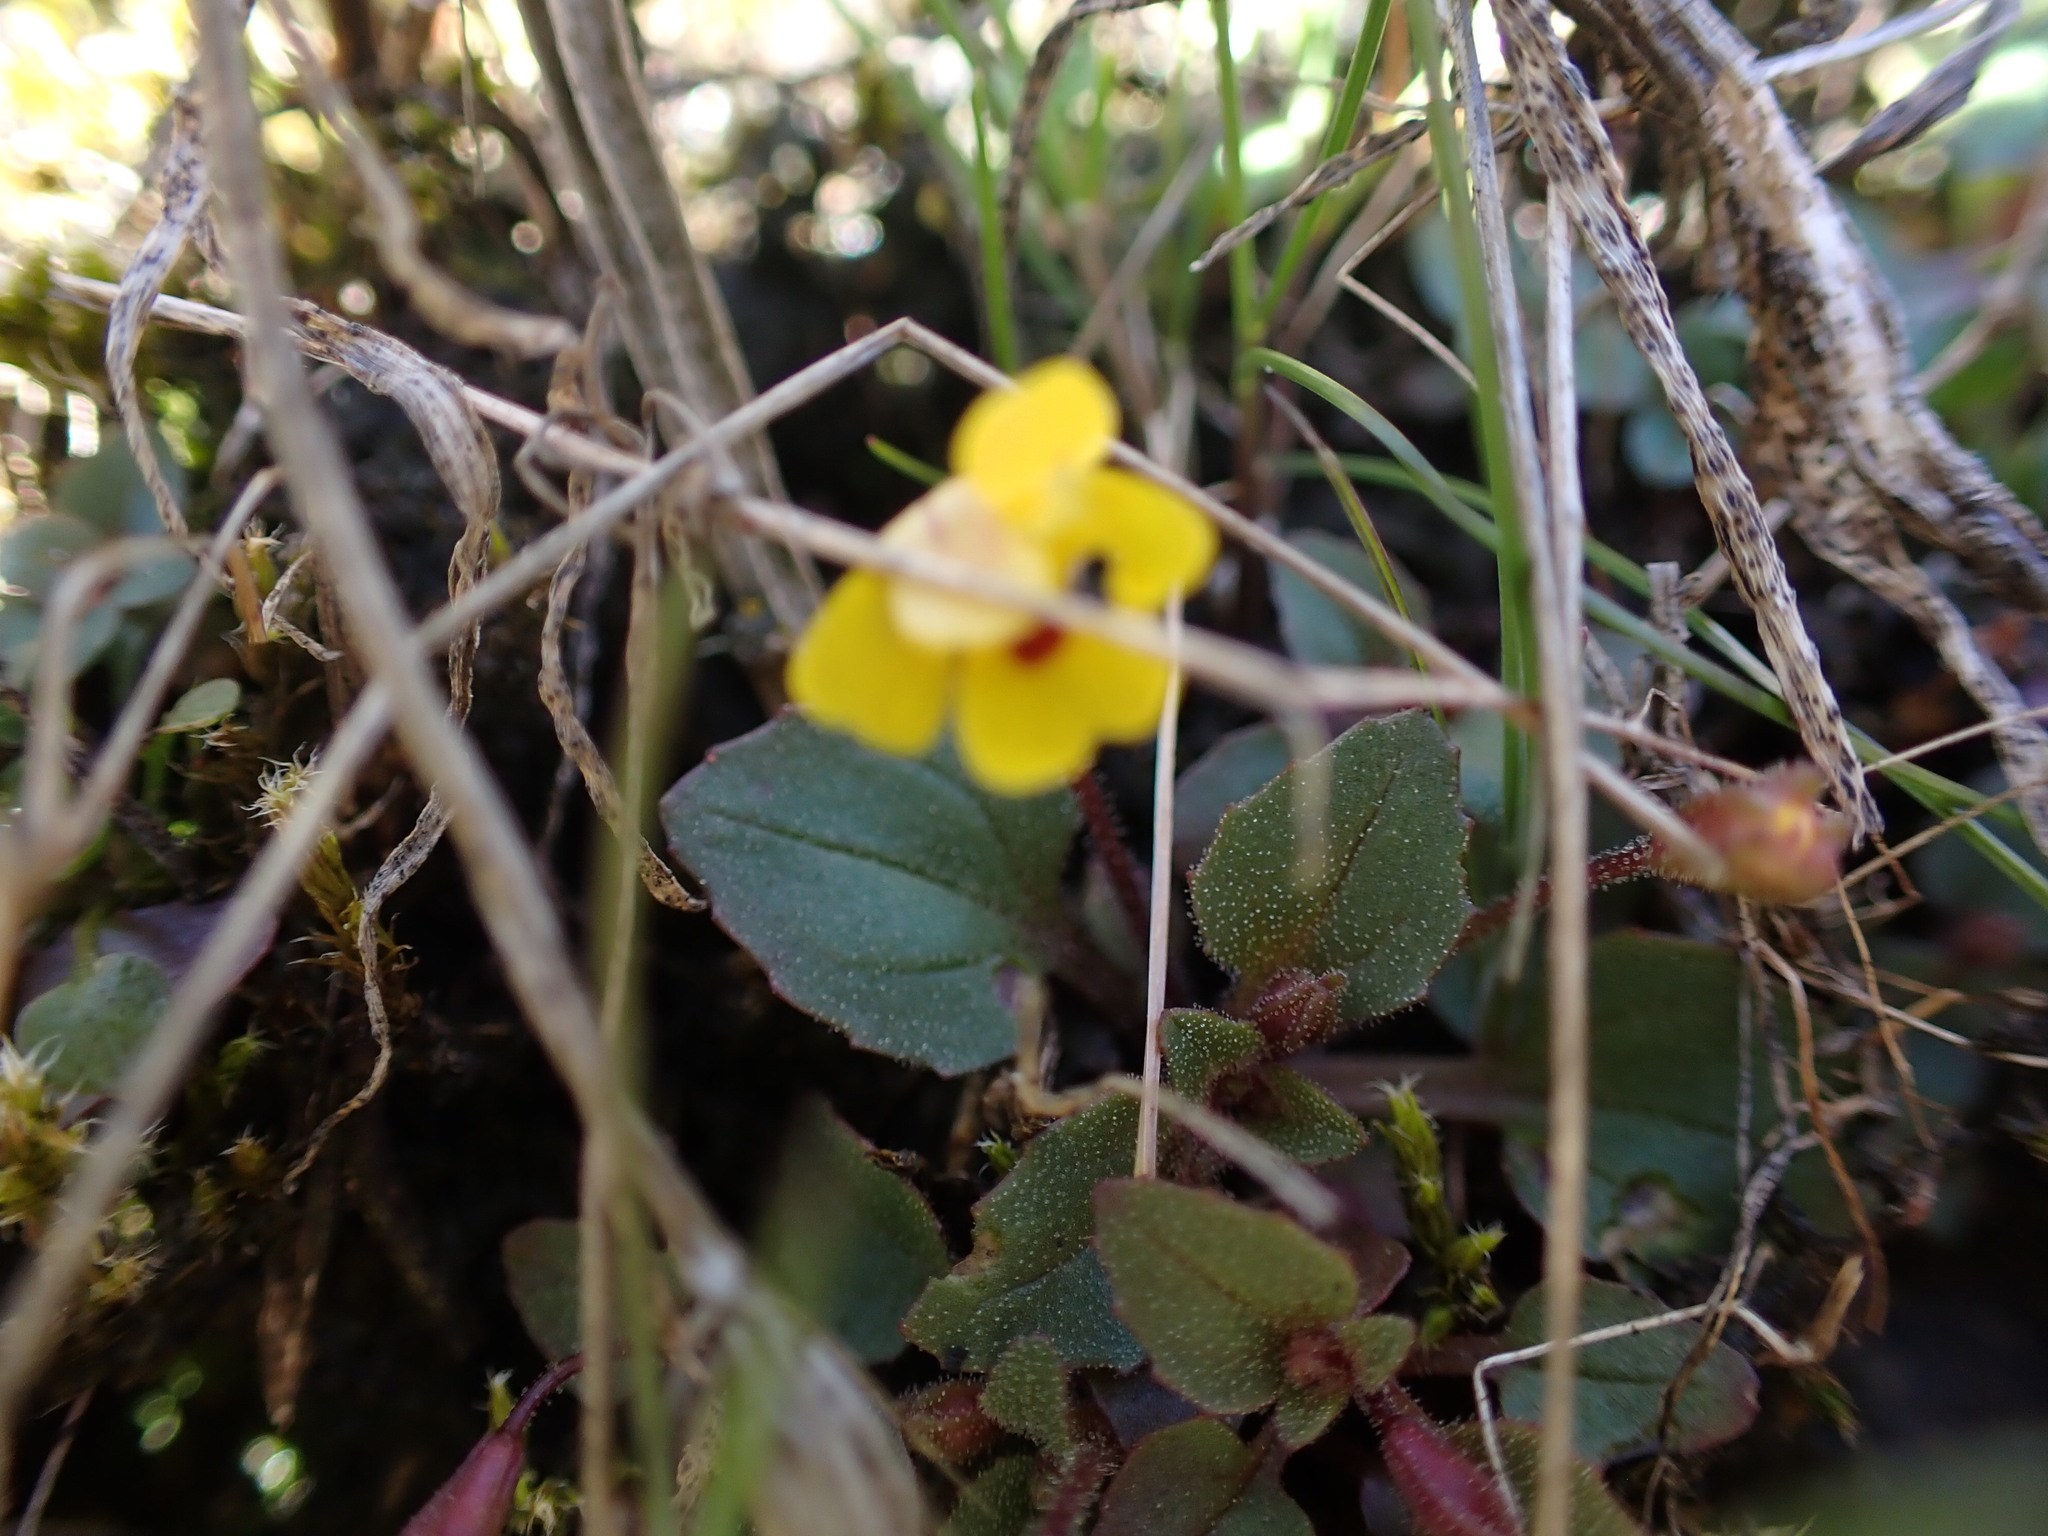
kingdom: Plantae
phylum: Tracheophyta
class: Magnoliopsida
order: Lamiales
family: Phrymaceae
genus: Erythranthe
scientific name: Erythranthe alsinoides
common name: Chickweed monkeyflower
